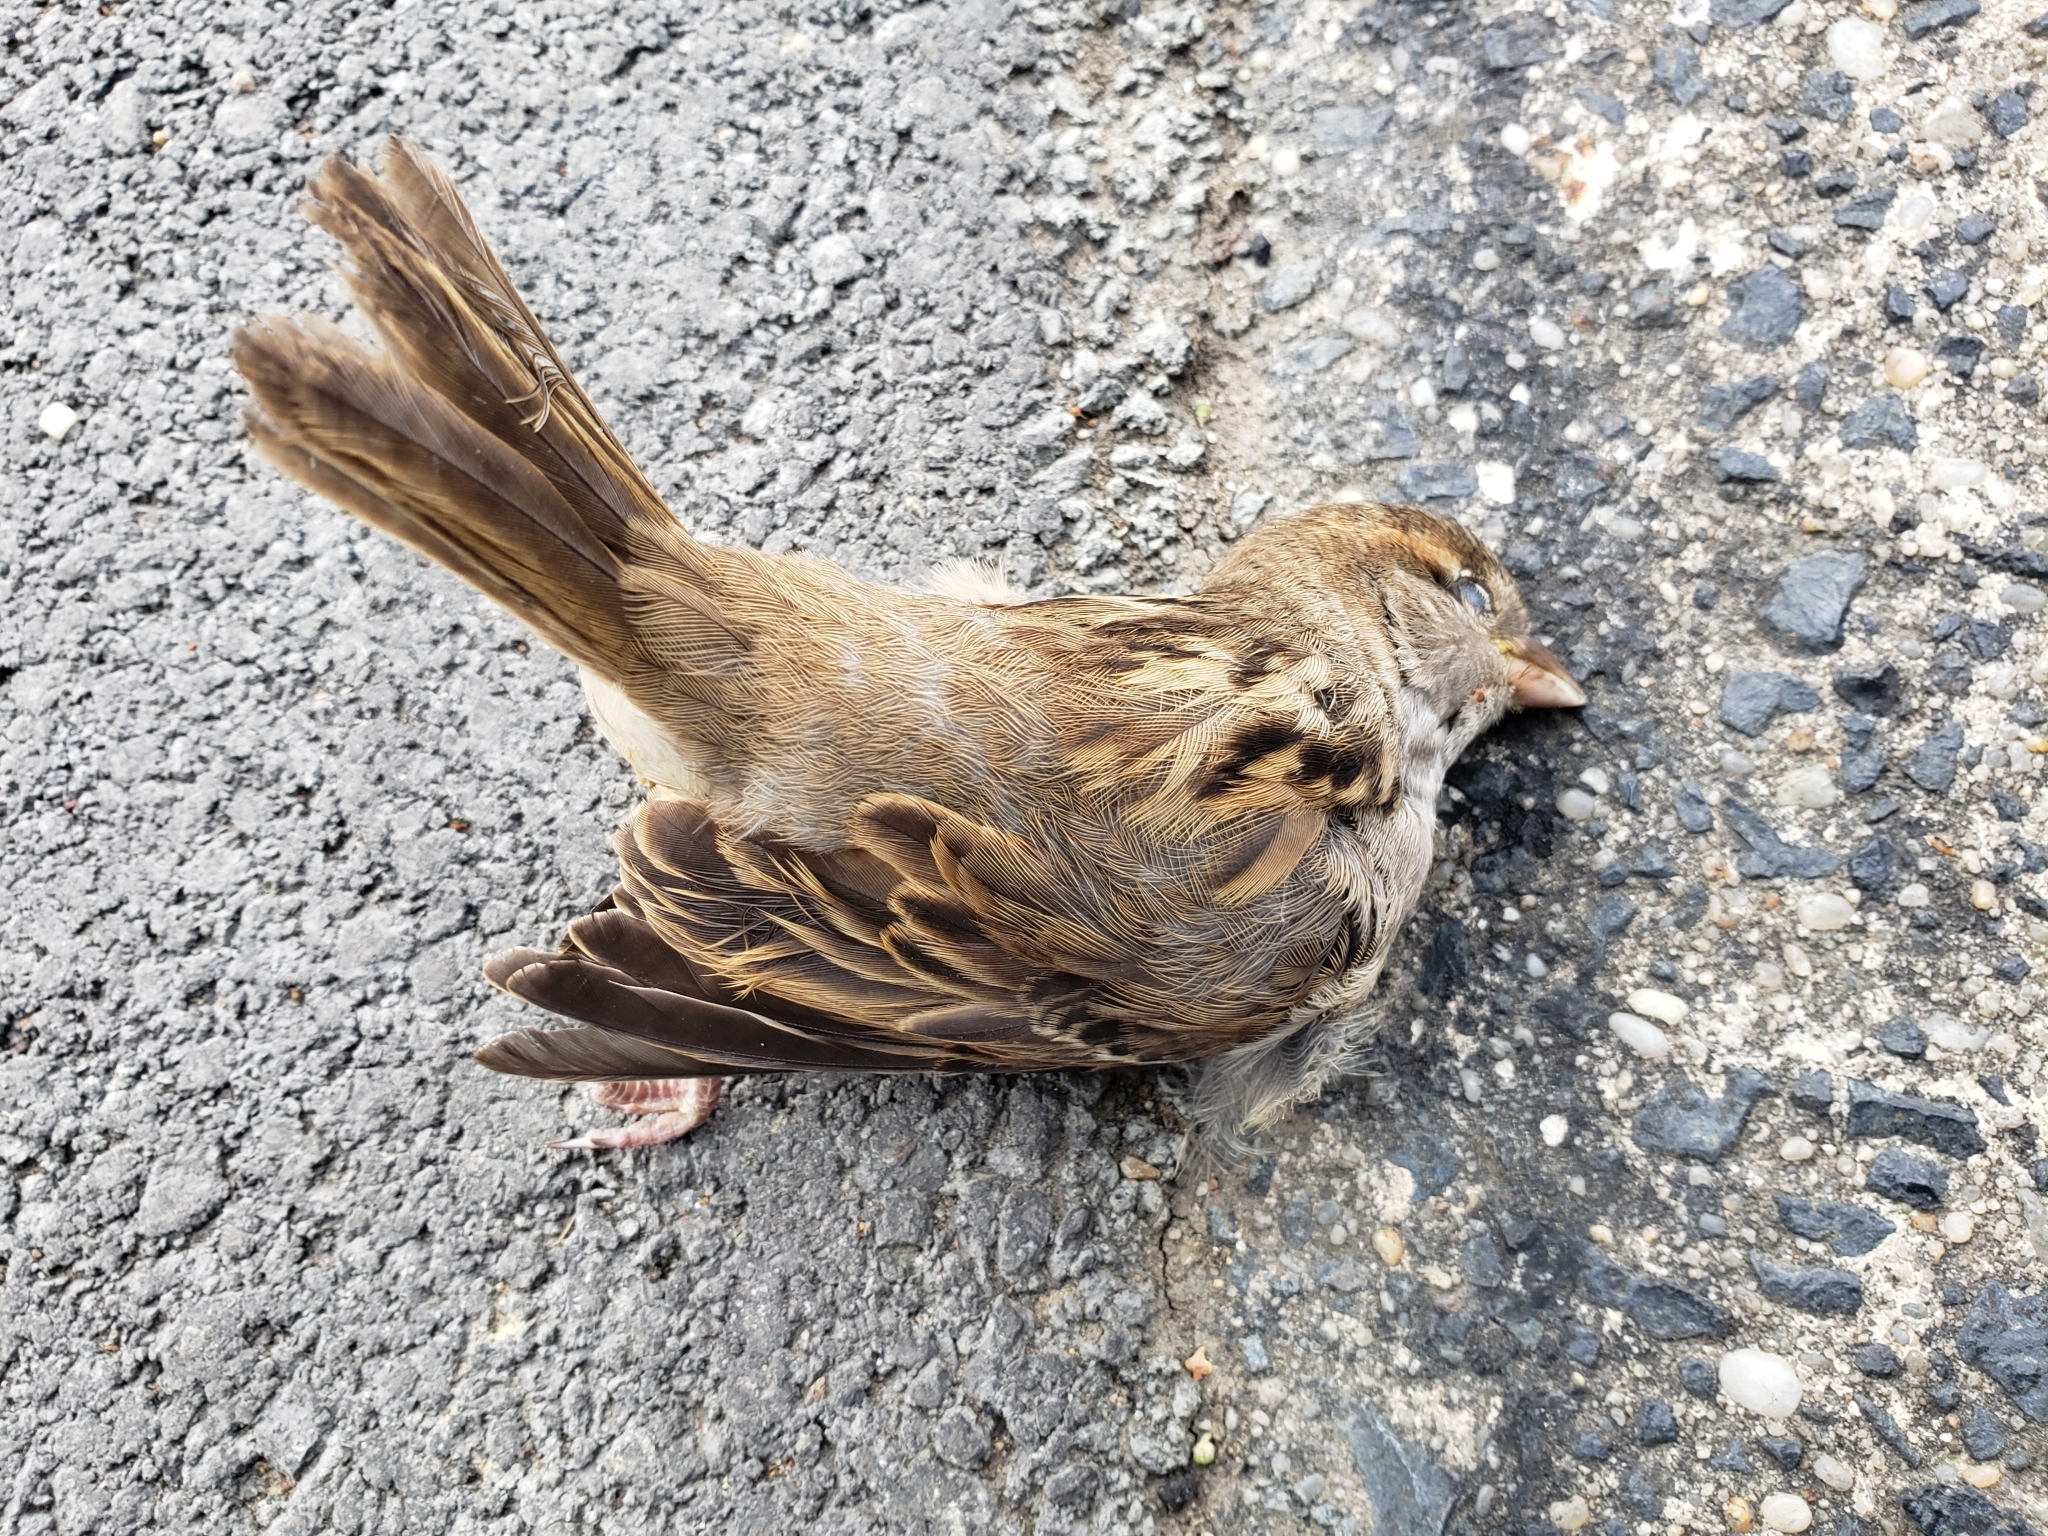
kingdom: Animalia
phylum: Chordata
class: Aves
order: Passeriformes
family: Passeridae
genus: Passer
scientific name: Passer domesticus
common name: House sparrow
